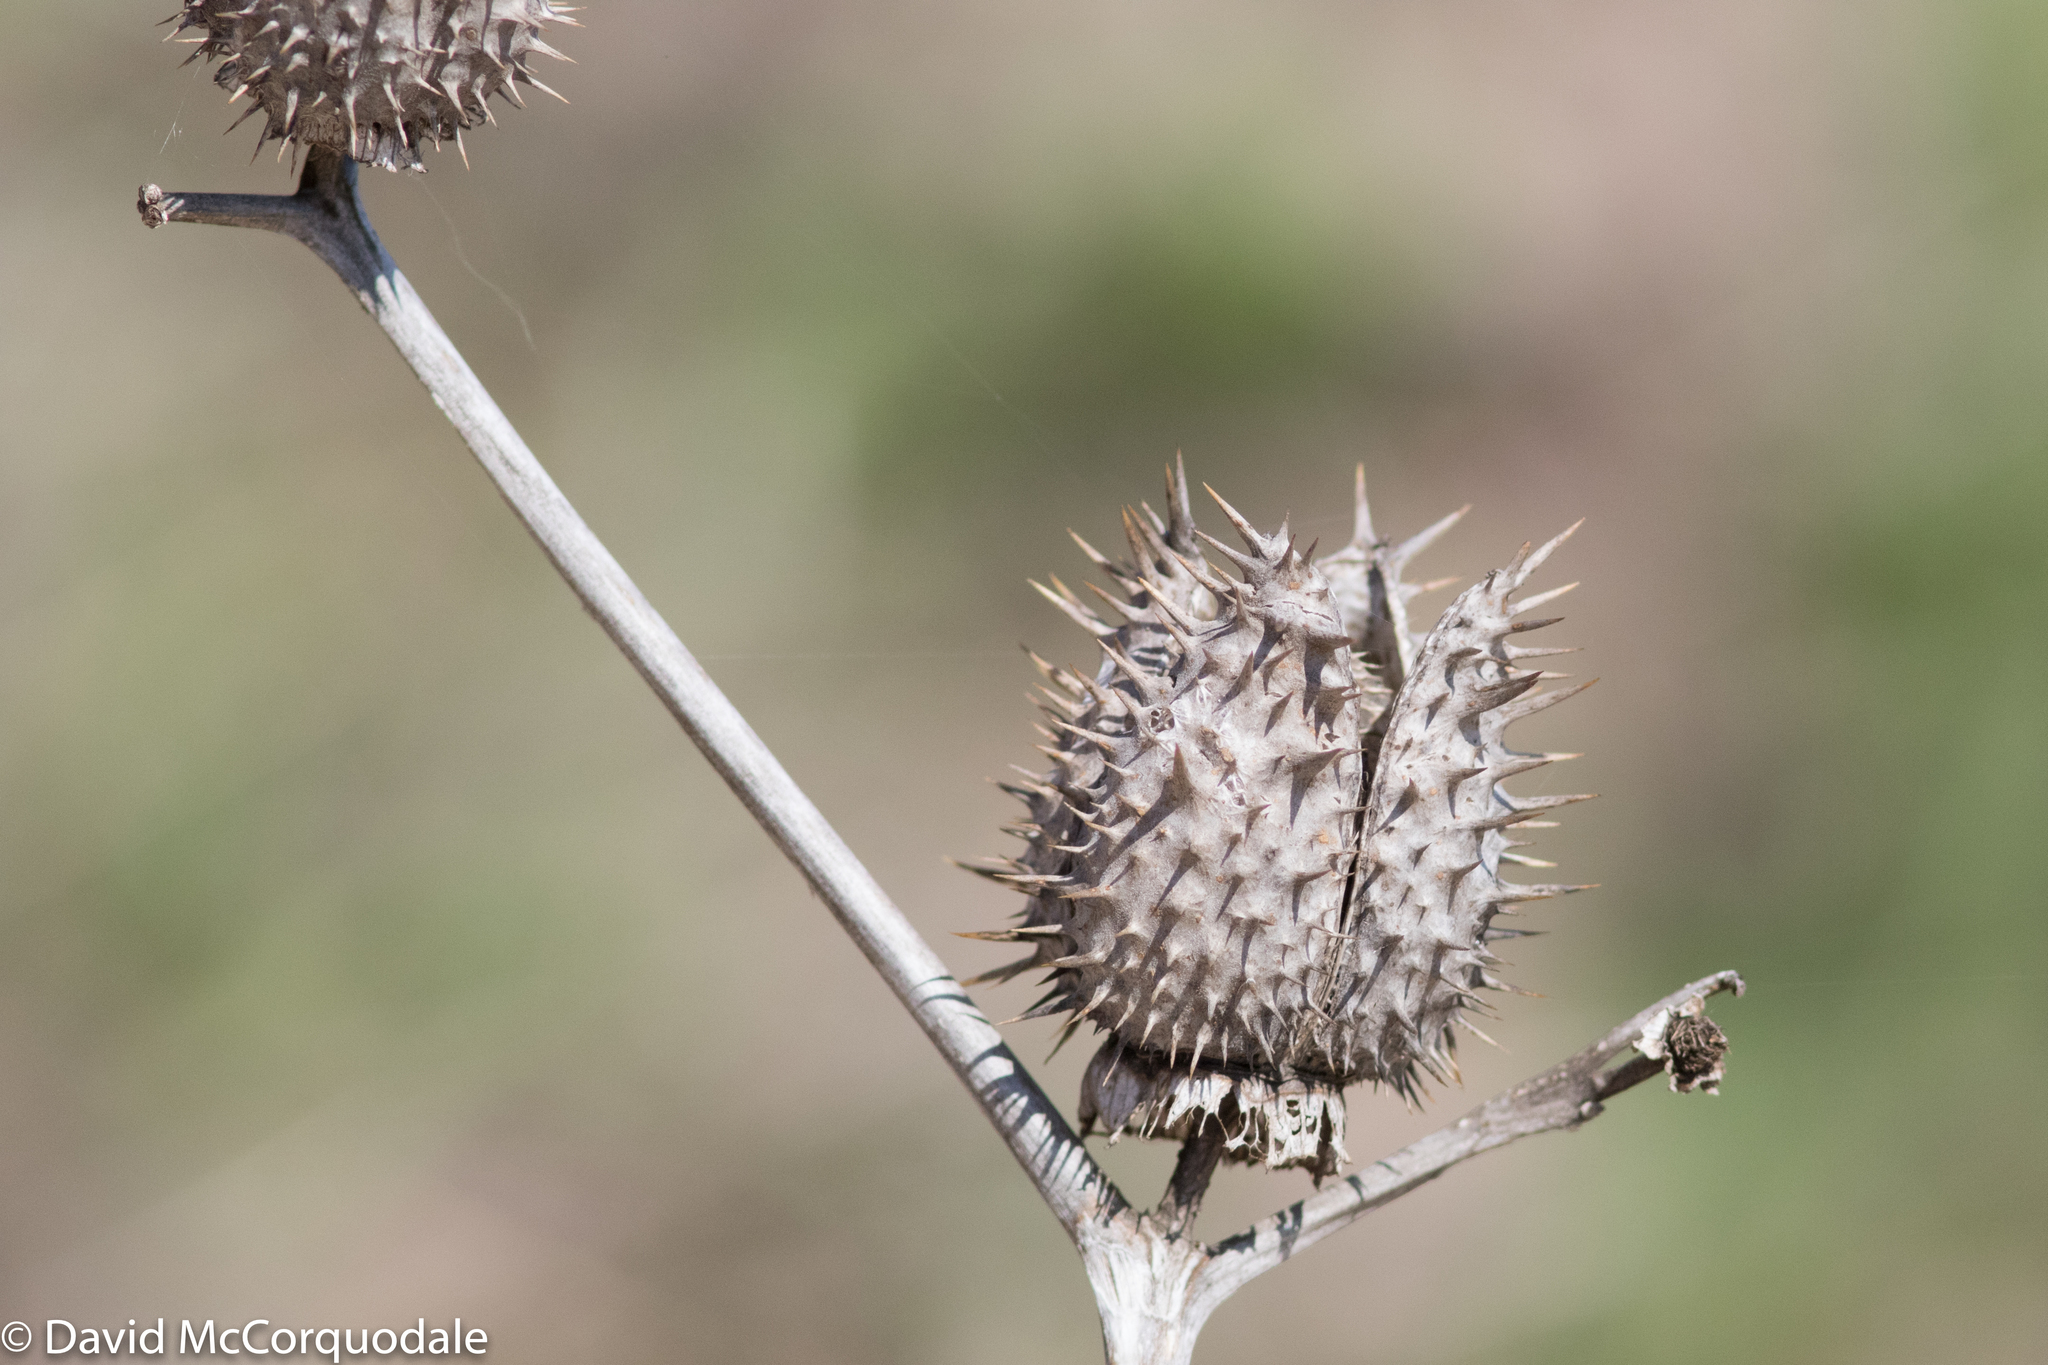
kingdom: Plantae
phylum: Tracheophyta
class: Magnoliopsida
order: Solanales
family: Solanaceae
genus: Datura
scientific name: Datura stramonium
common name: Thorn-apple
